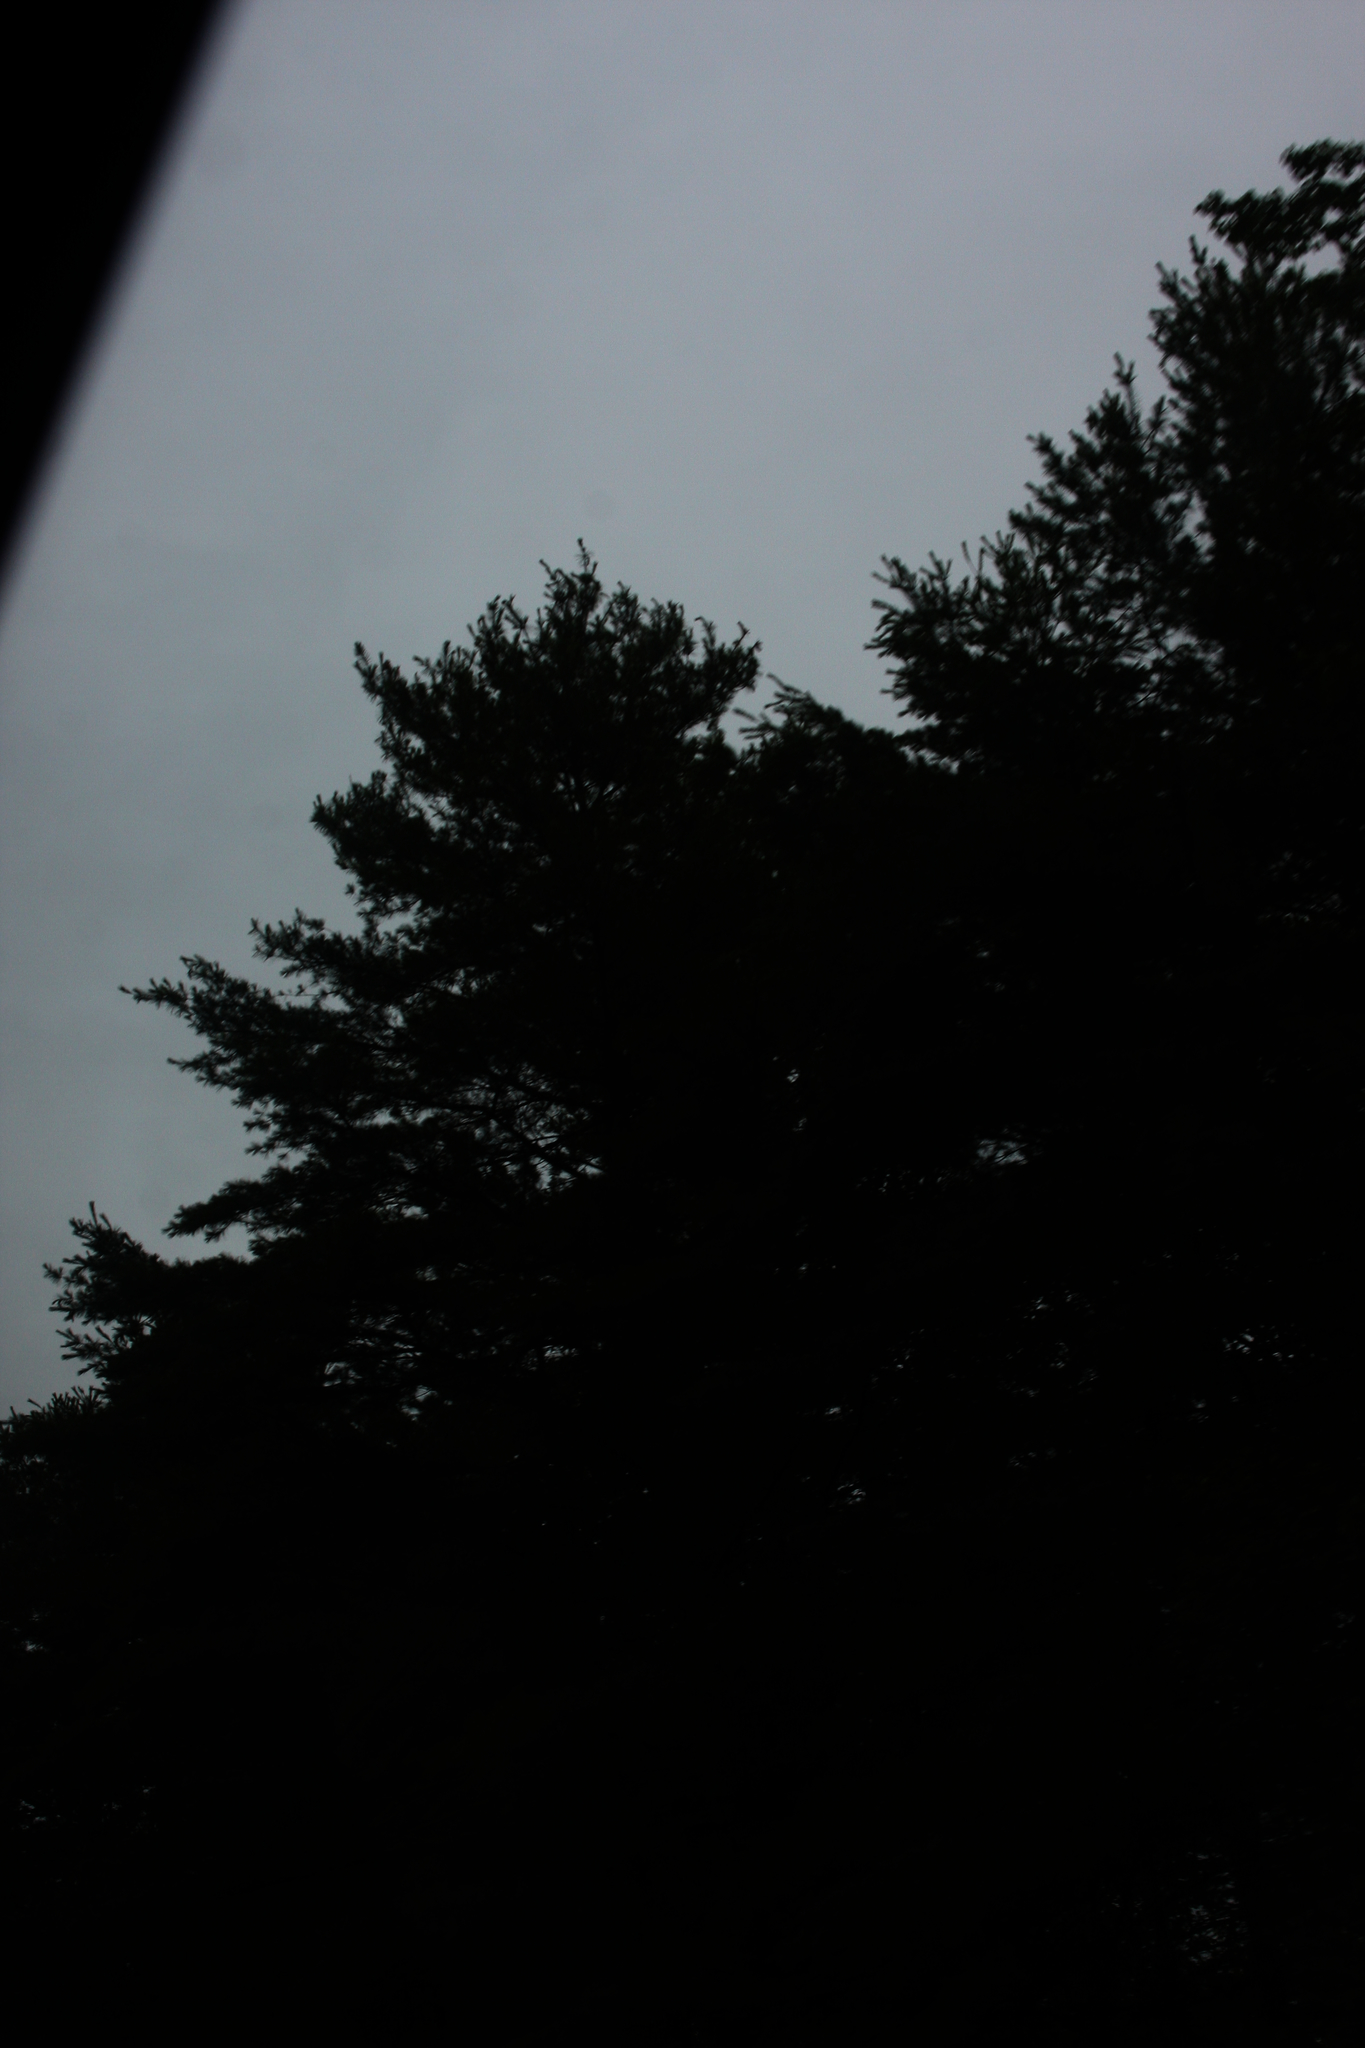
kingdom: Plantae
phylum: Tracheophyta
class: Pinopsida
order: Pinales
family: Pinaceae
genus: Pinus
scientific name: Pinus strobus
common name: Weymouth pine
